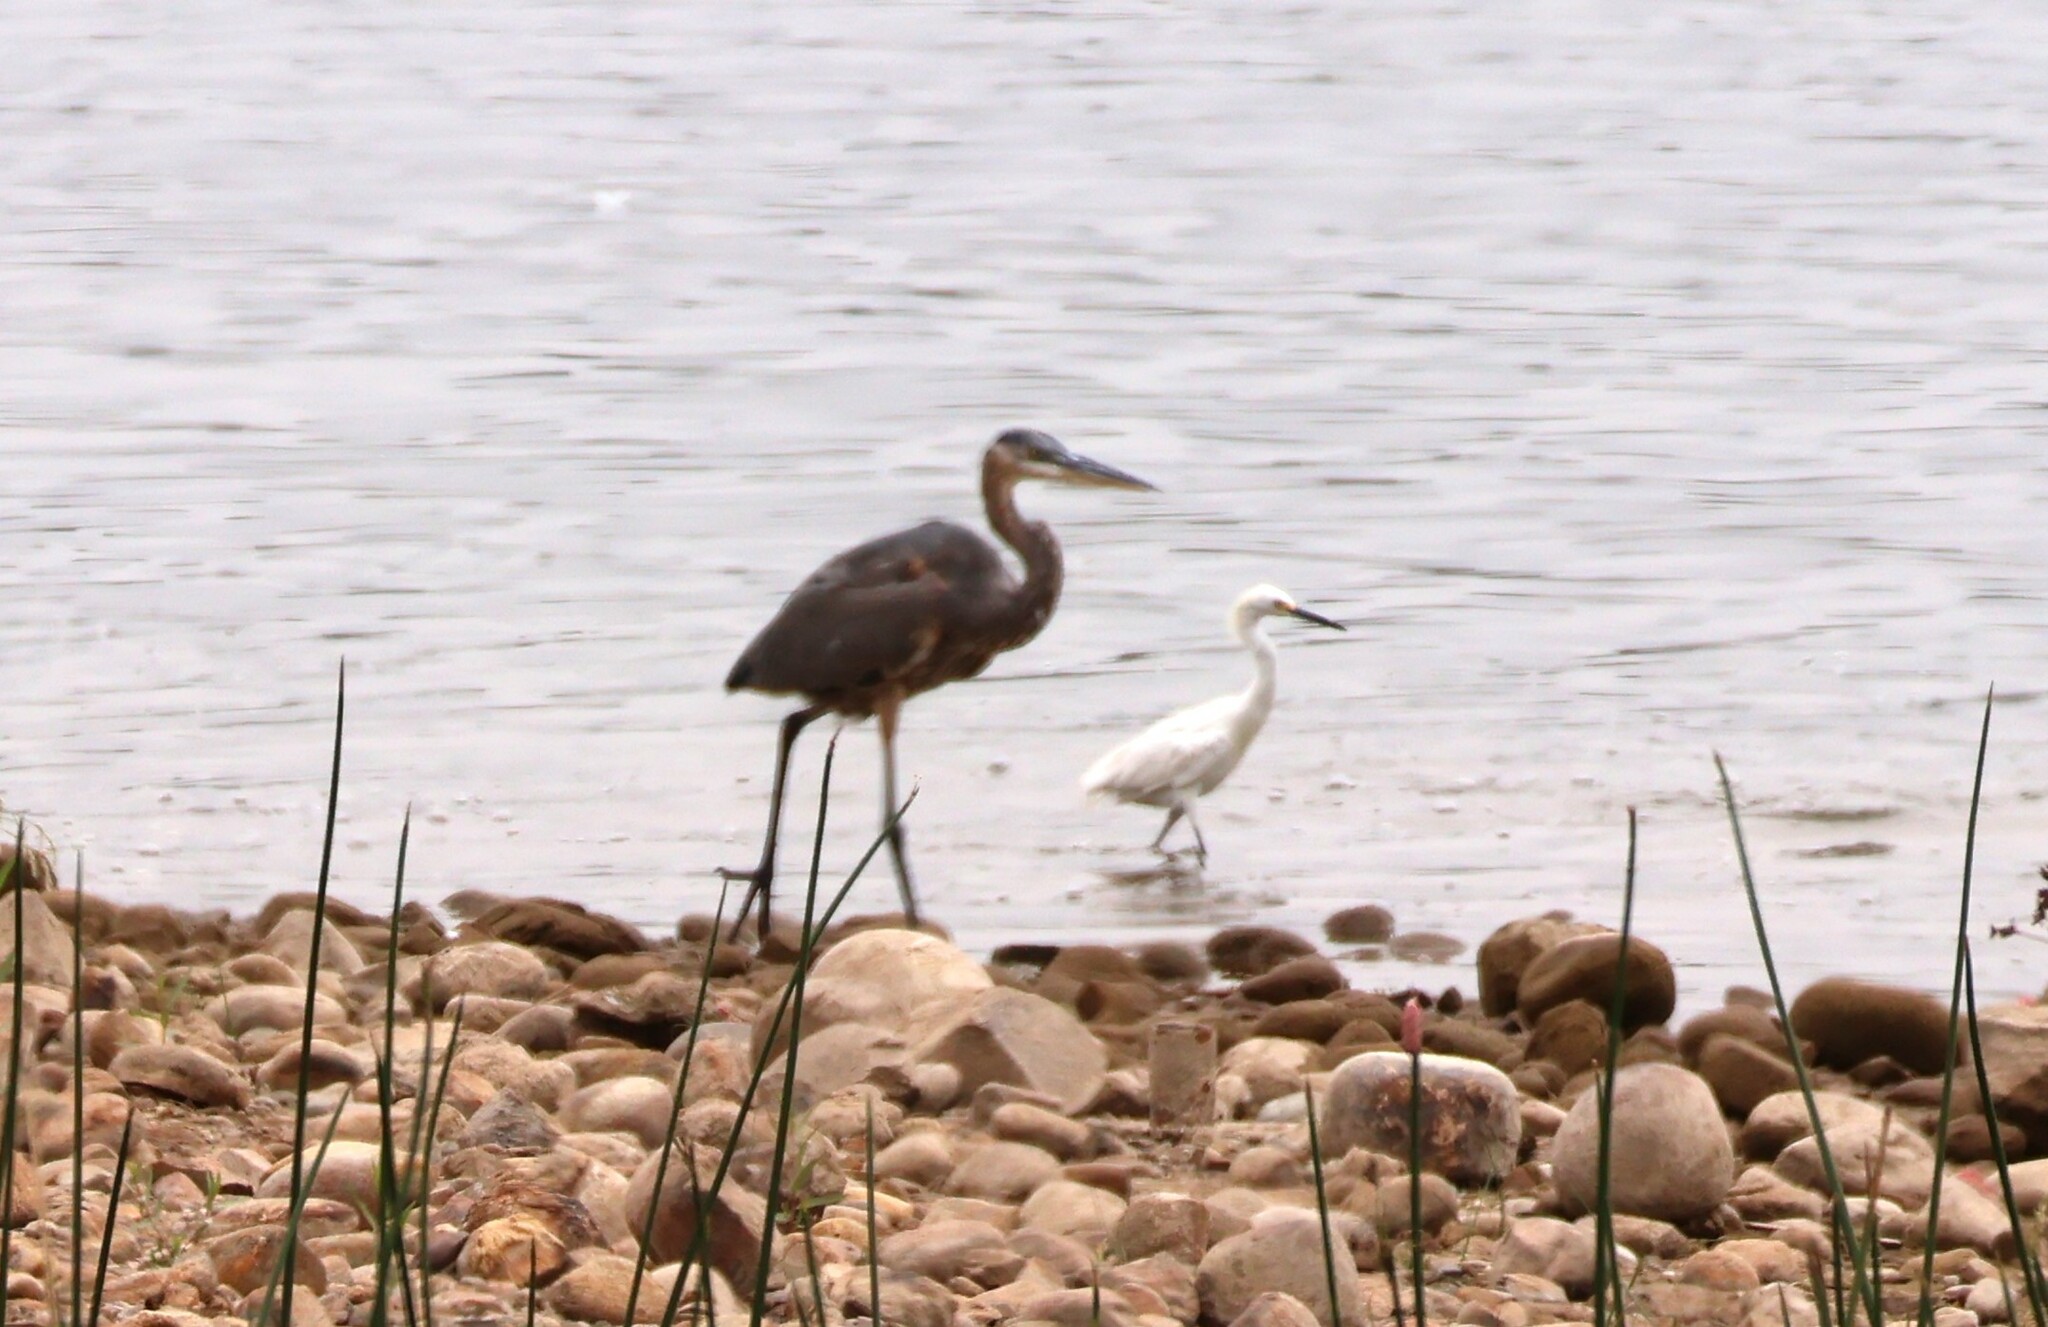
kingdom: Animalia
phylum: Chordata
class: Aves
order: Pelecaniformes
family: Ardeidae
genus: Ardea
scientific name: Ardea herodias
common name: Great blue heron
